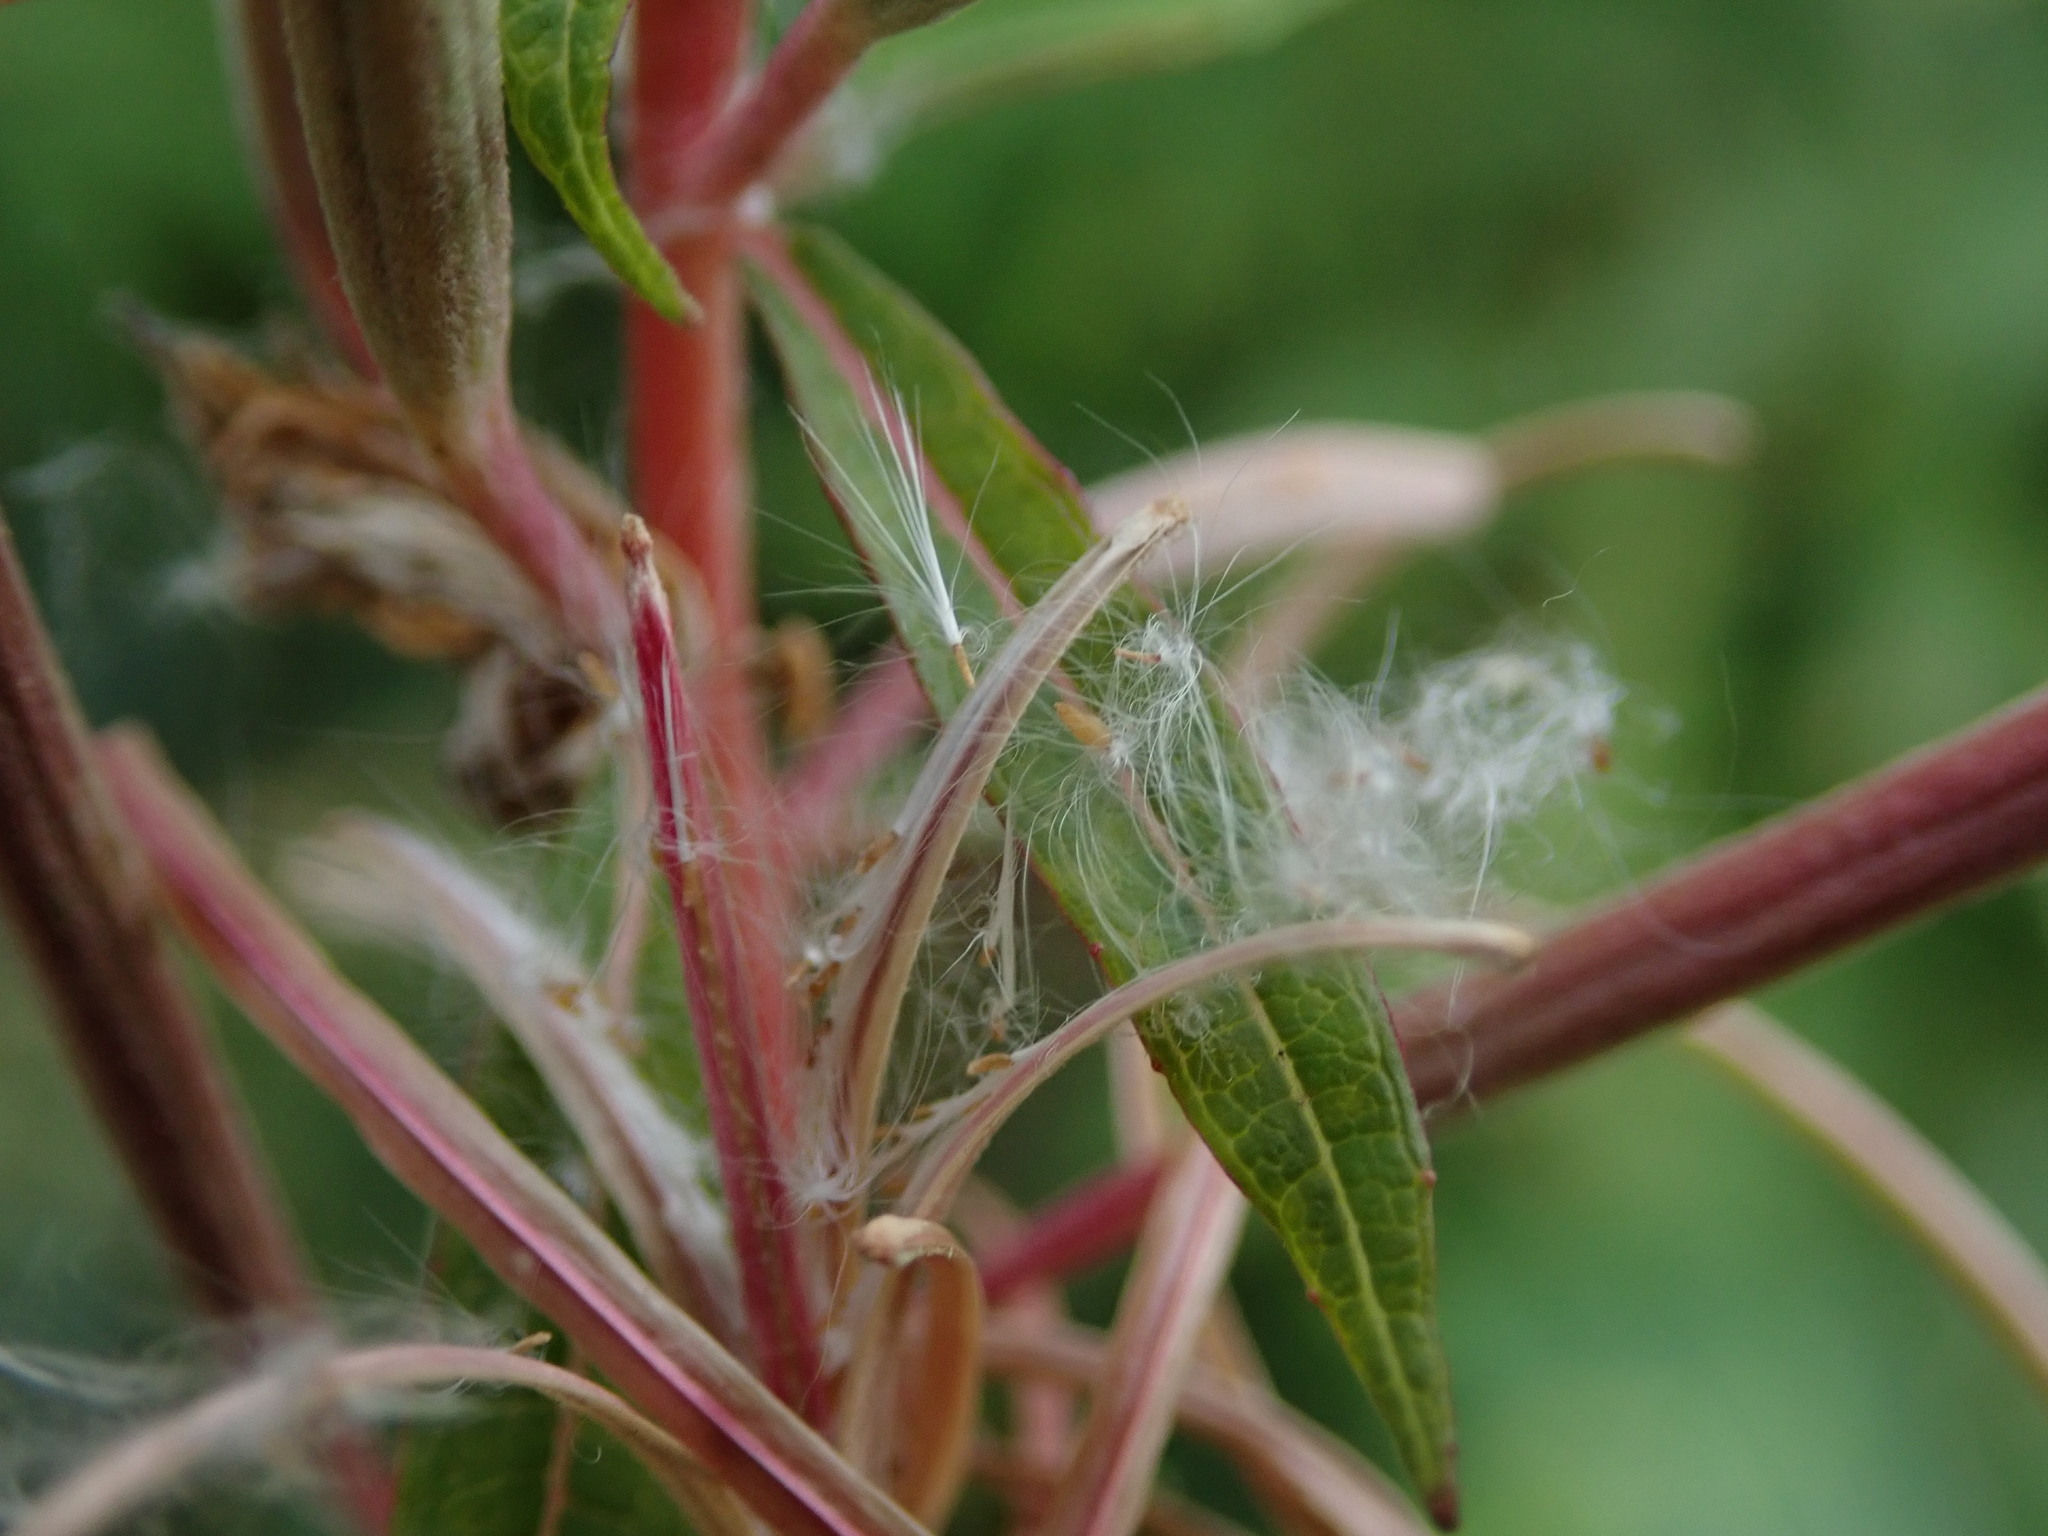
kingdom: Plantae
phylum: Tracheophyta
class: Magnoliopsida
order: Myrtales
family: Onagraceae
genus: Chamaenerion
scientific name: Chamaenerion angustifolium
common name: Fireweed
